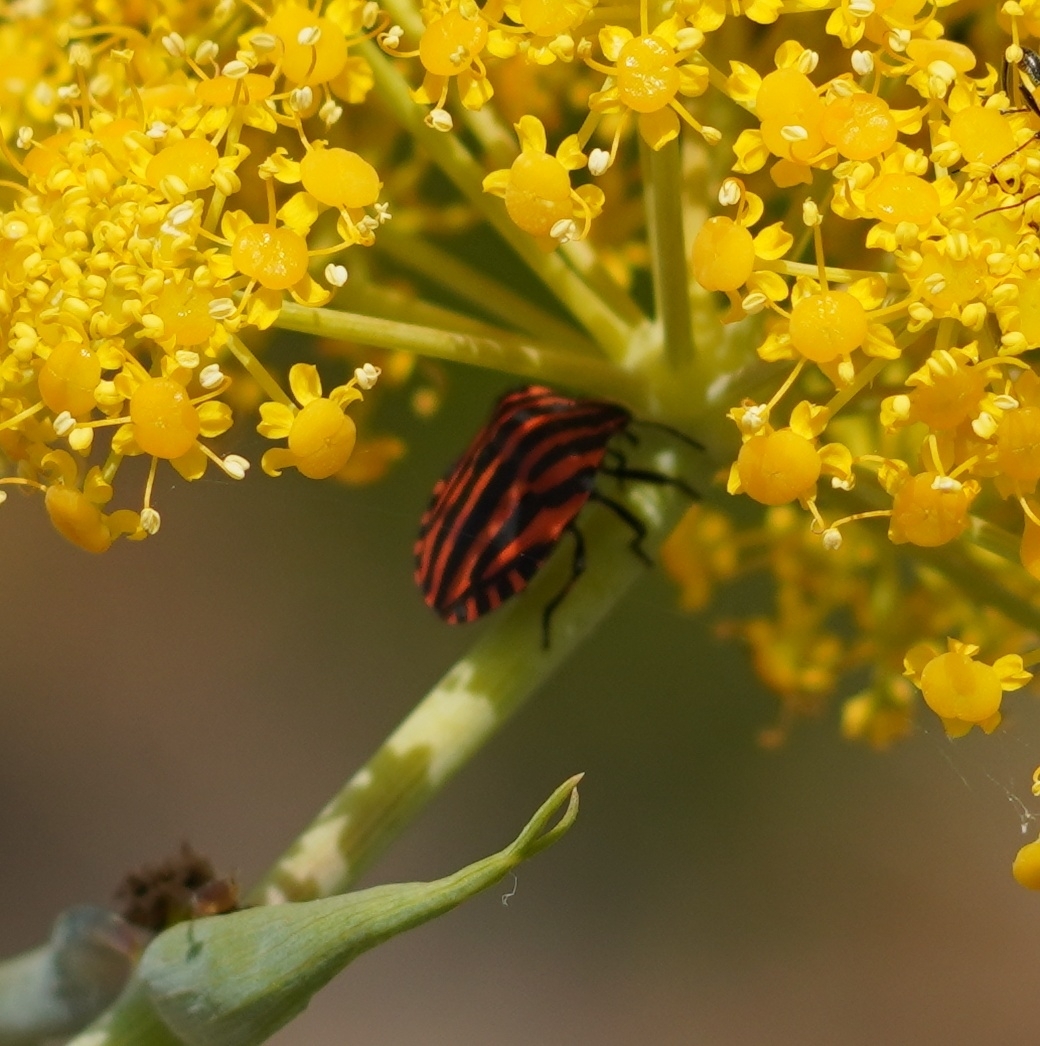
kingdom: Animalia
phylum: Arthropoda
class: Insecta
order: Hemiptera
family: Pentatomidae
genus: Graphosoma
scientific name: Graphosoma italicum
